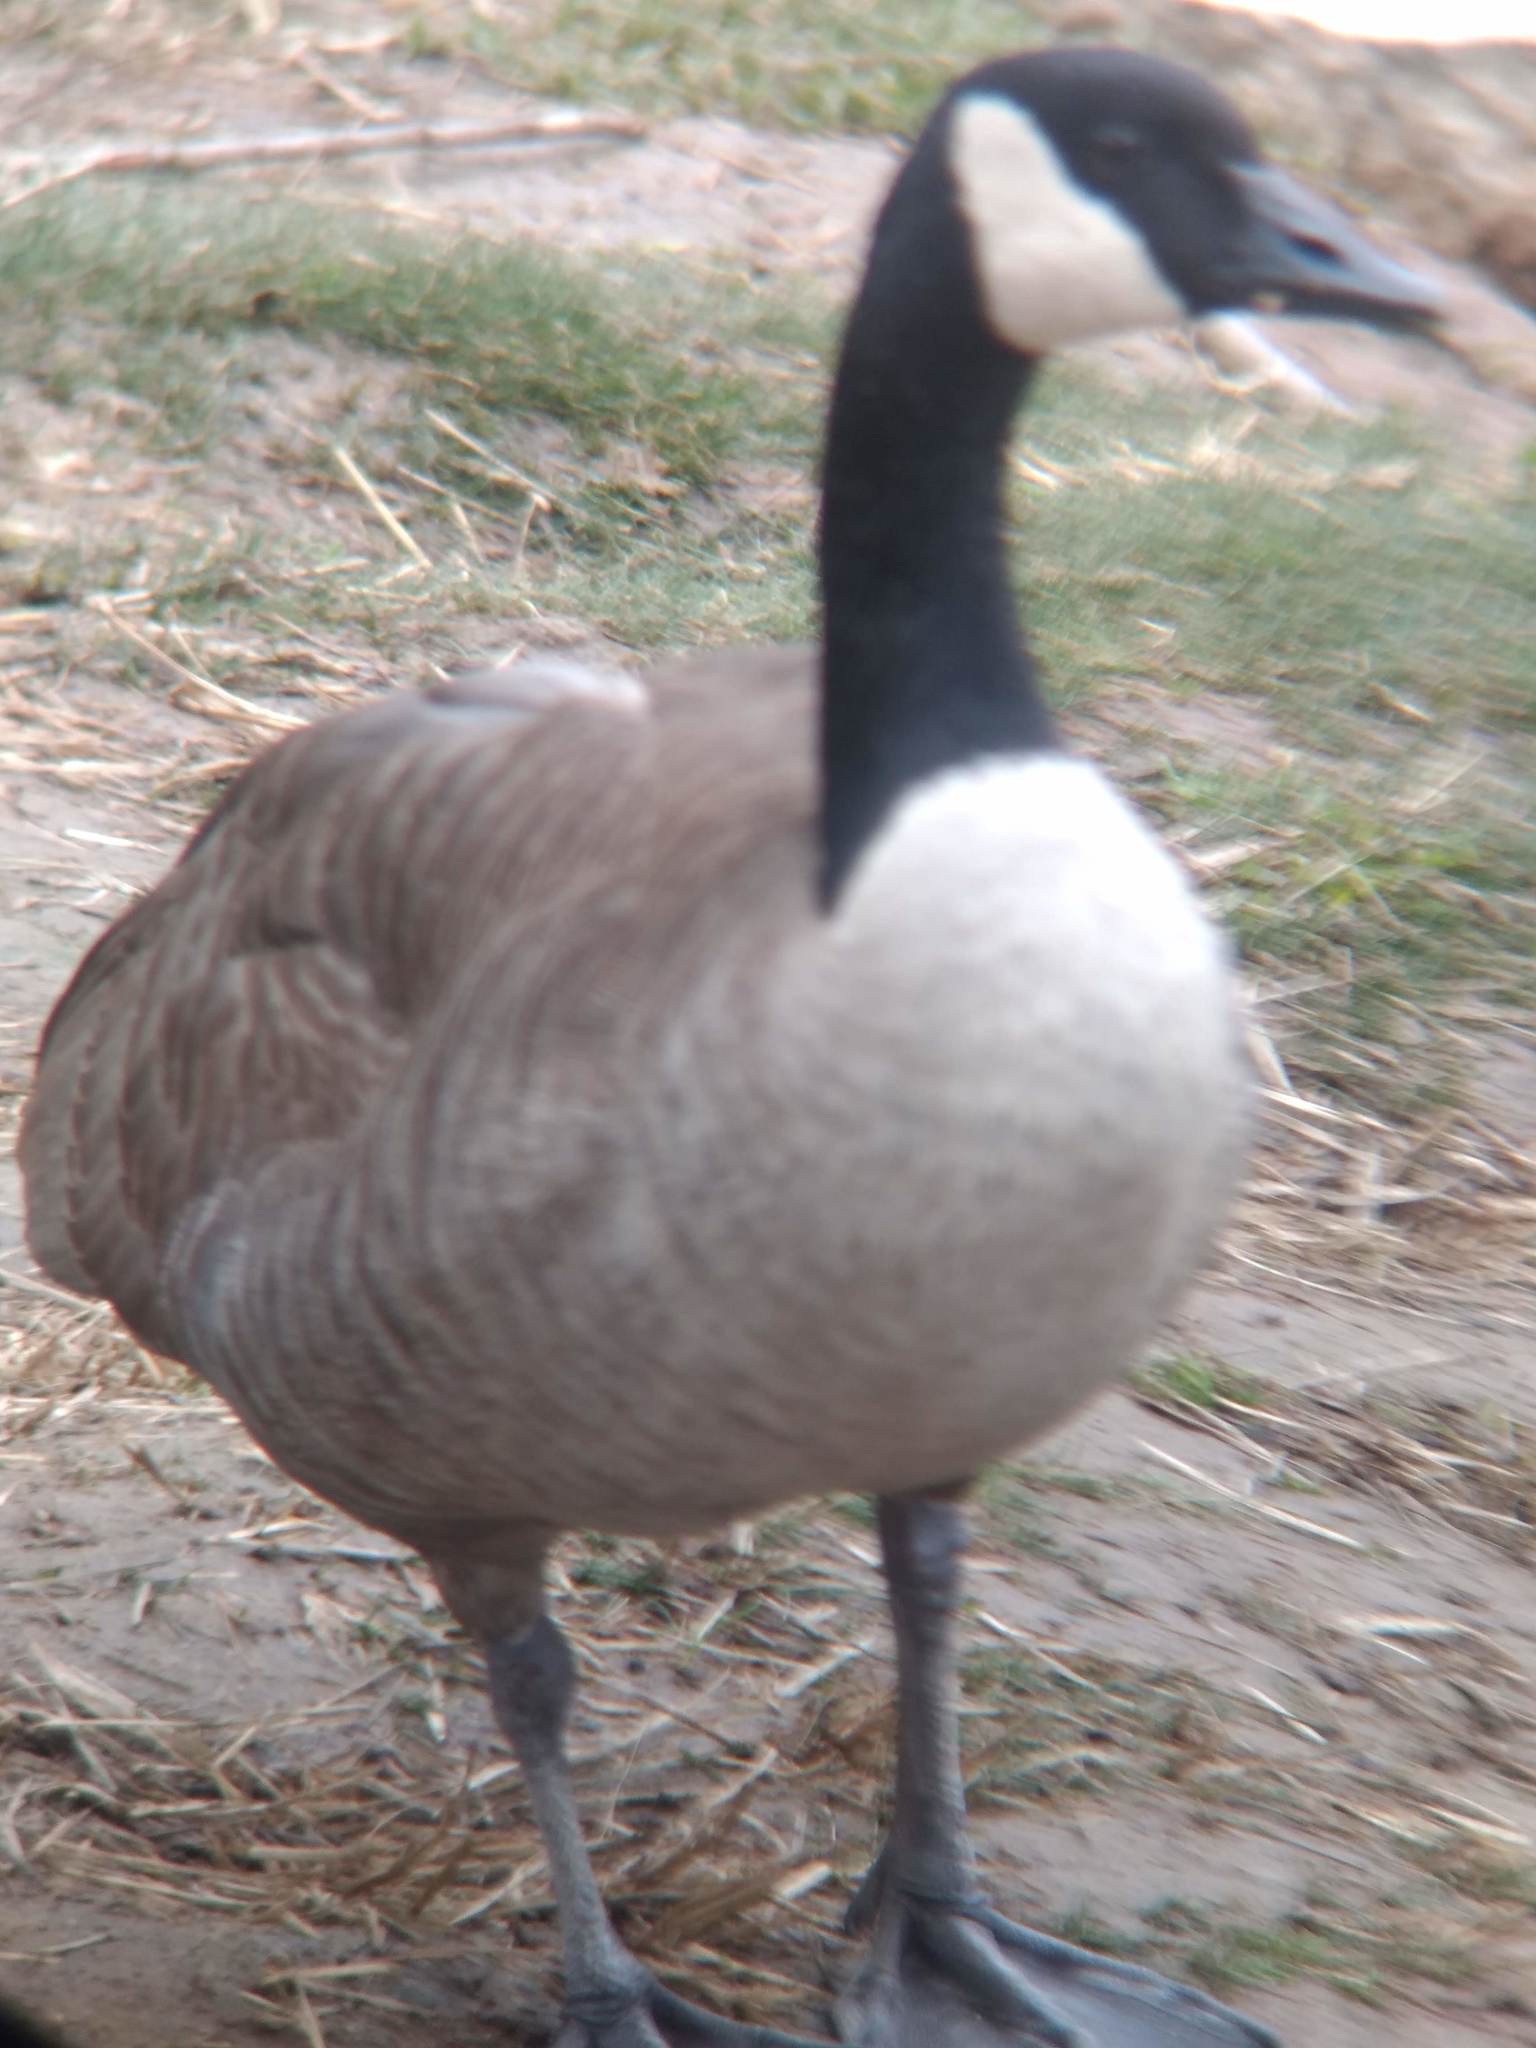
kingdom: Animalia
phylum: Chordata
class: Aves
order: Anseriformes
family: Anatidae
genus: Branta
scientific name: Branta canadensis
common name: Canada goose
